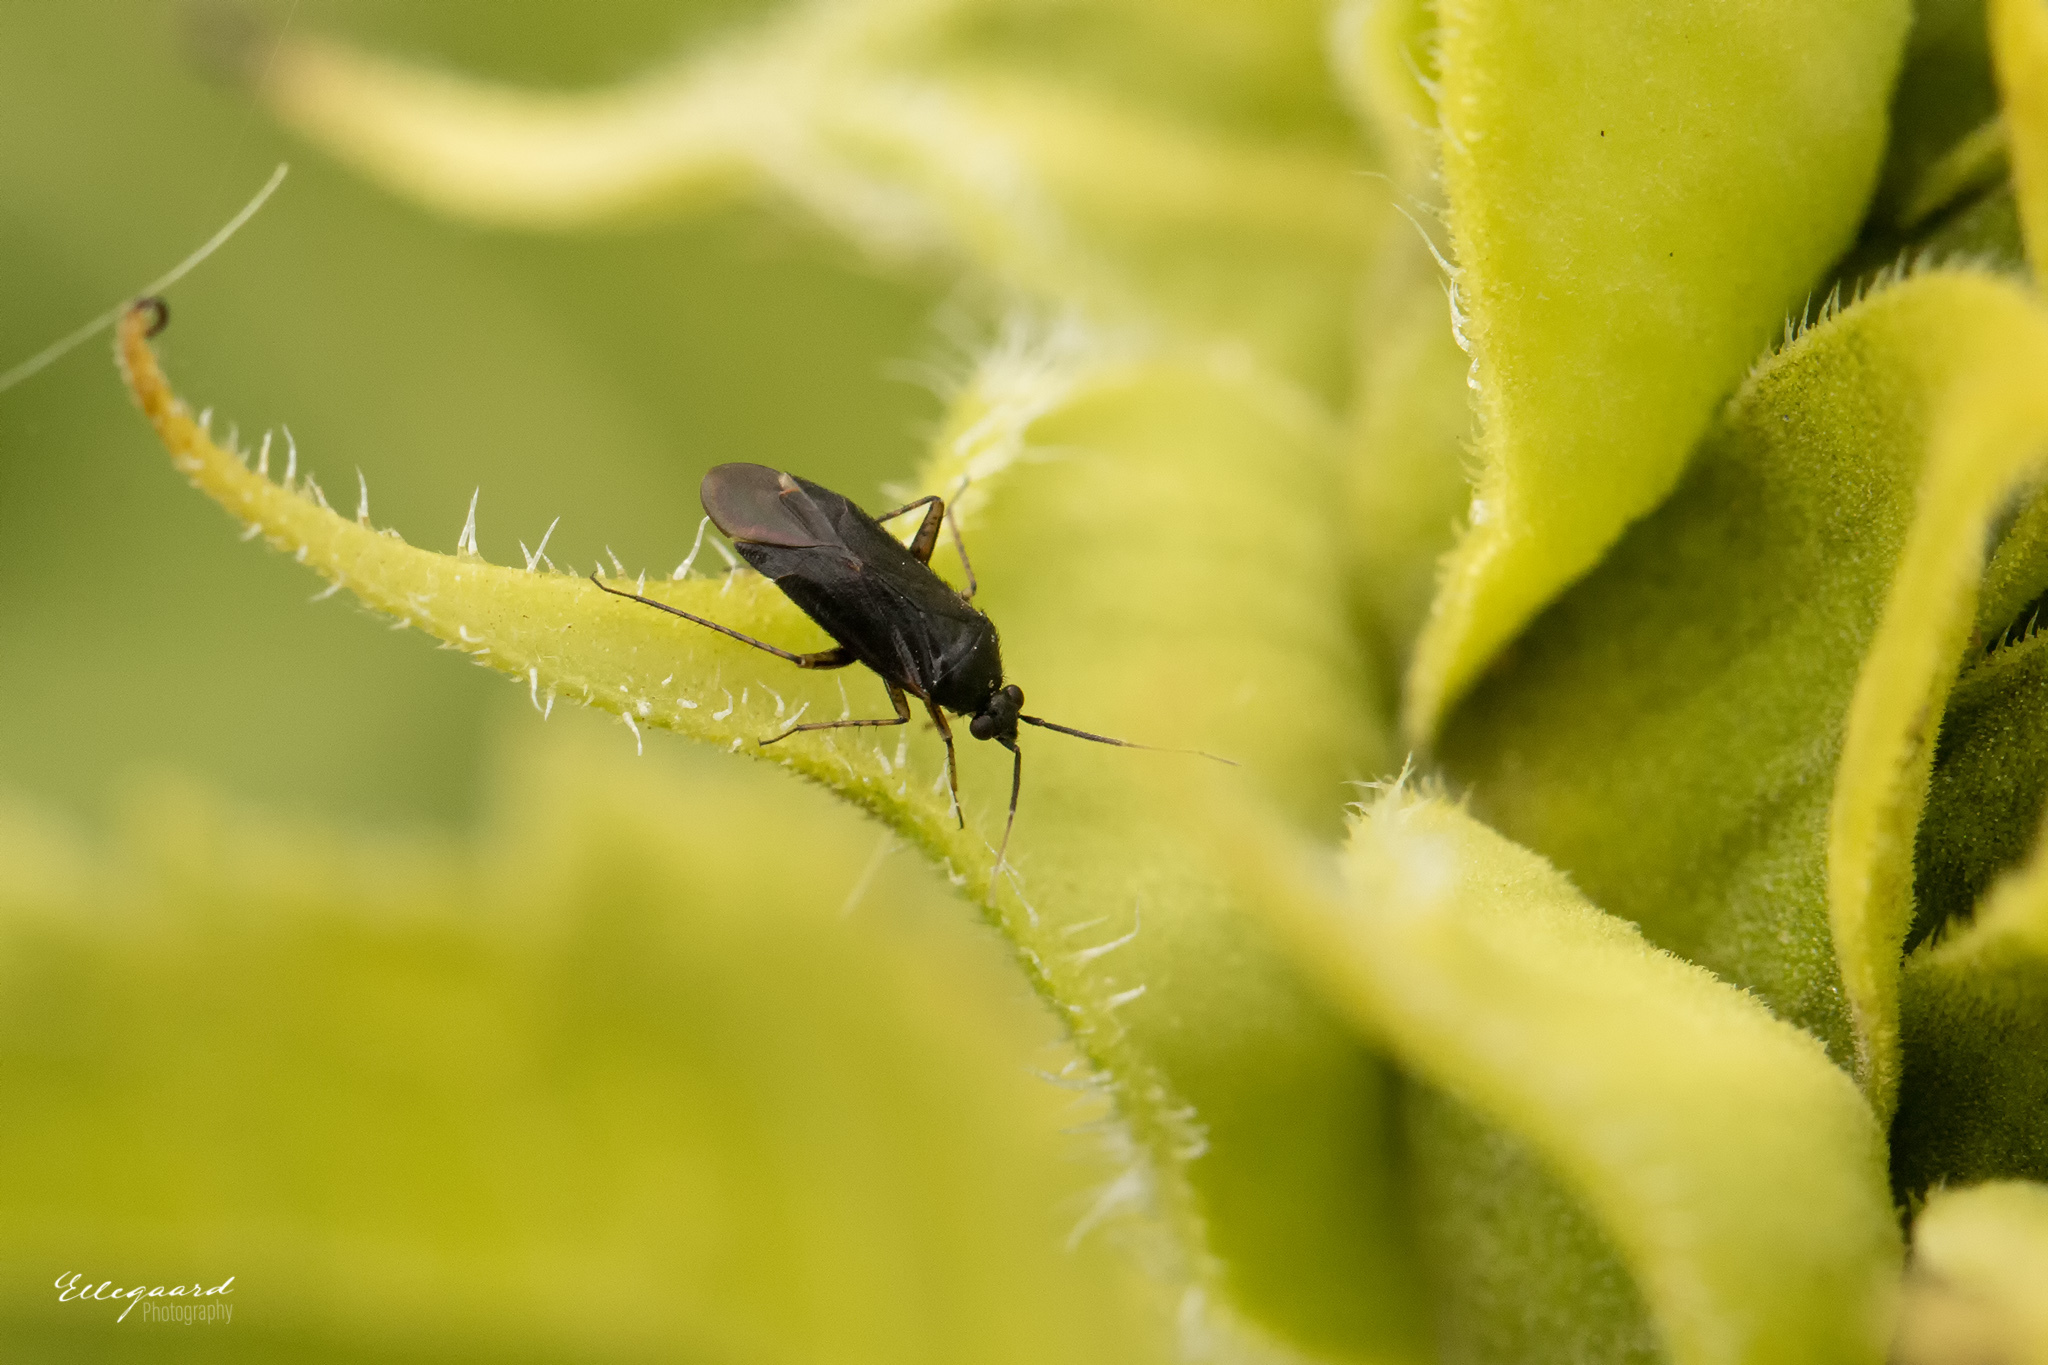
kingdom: Animalia
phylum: Arthropoda
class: Insecta
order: Hemiptera
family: Miridae
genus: Plagiognathus
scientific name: Plagiognathus arbustorum
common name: Plant bug
